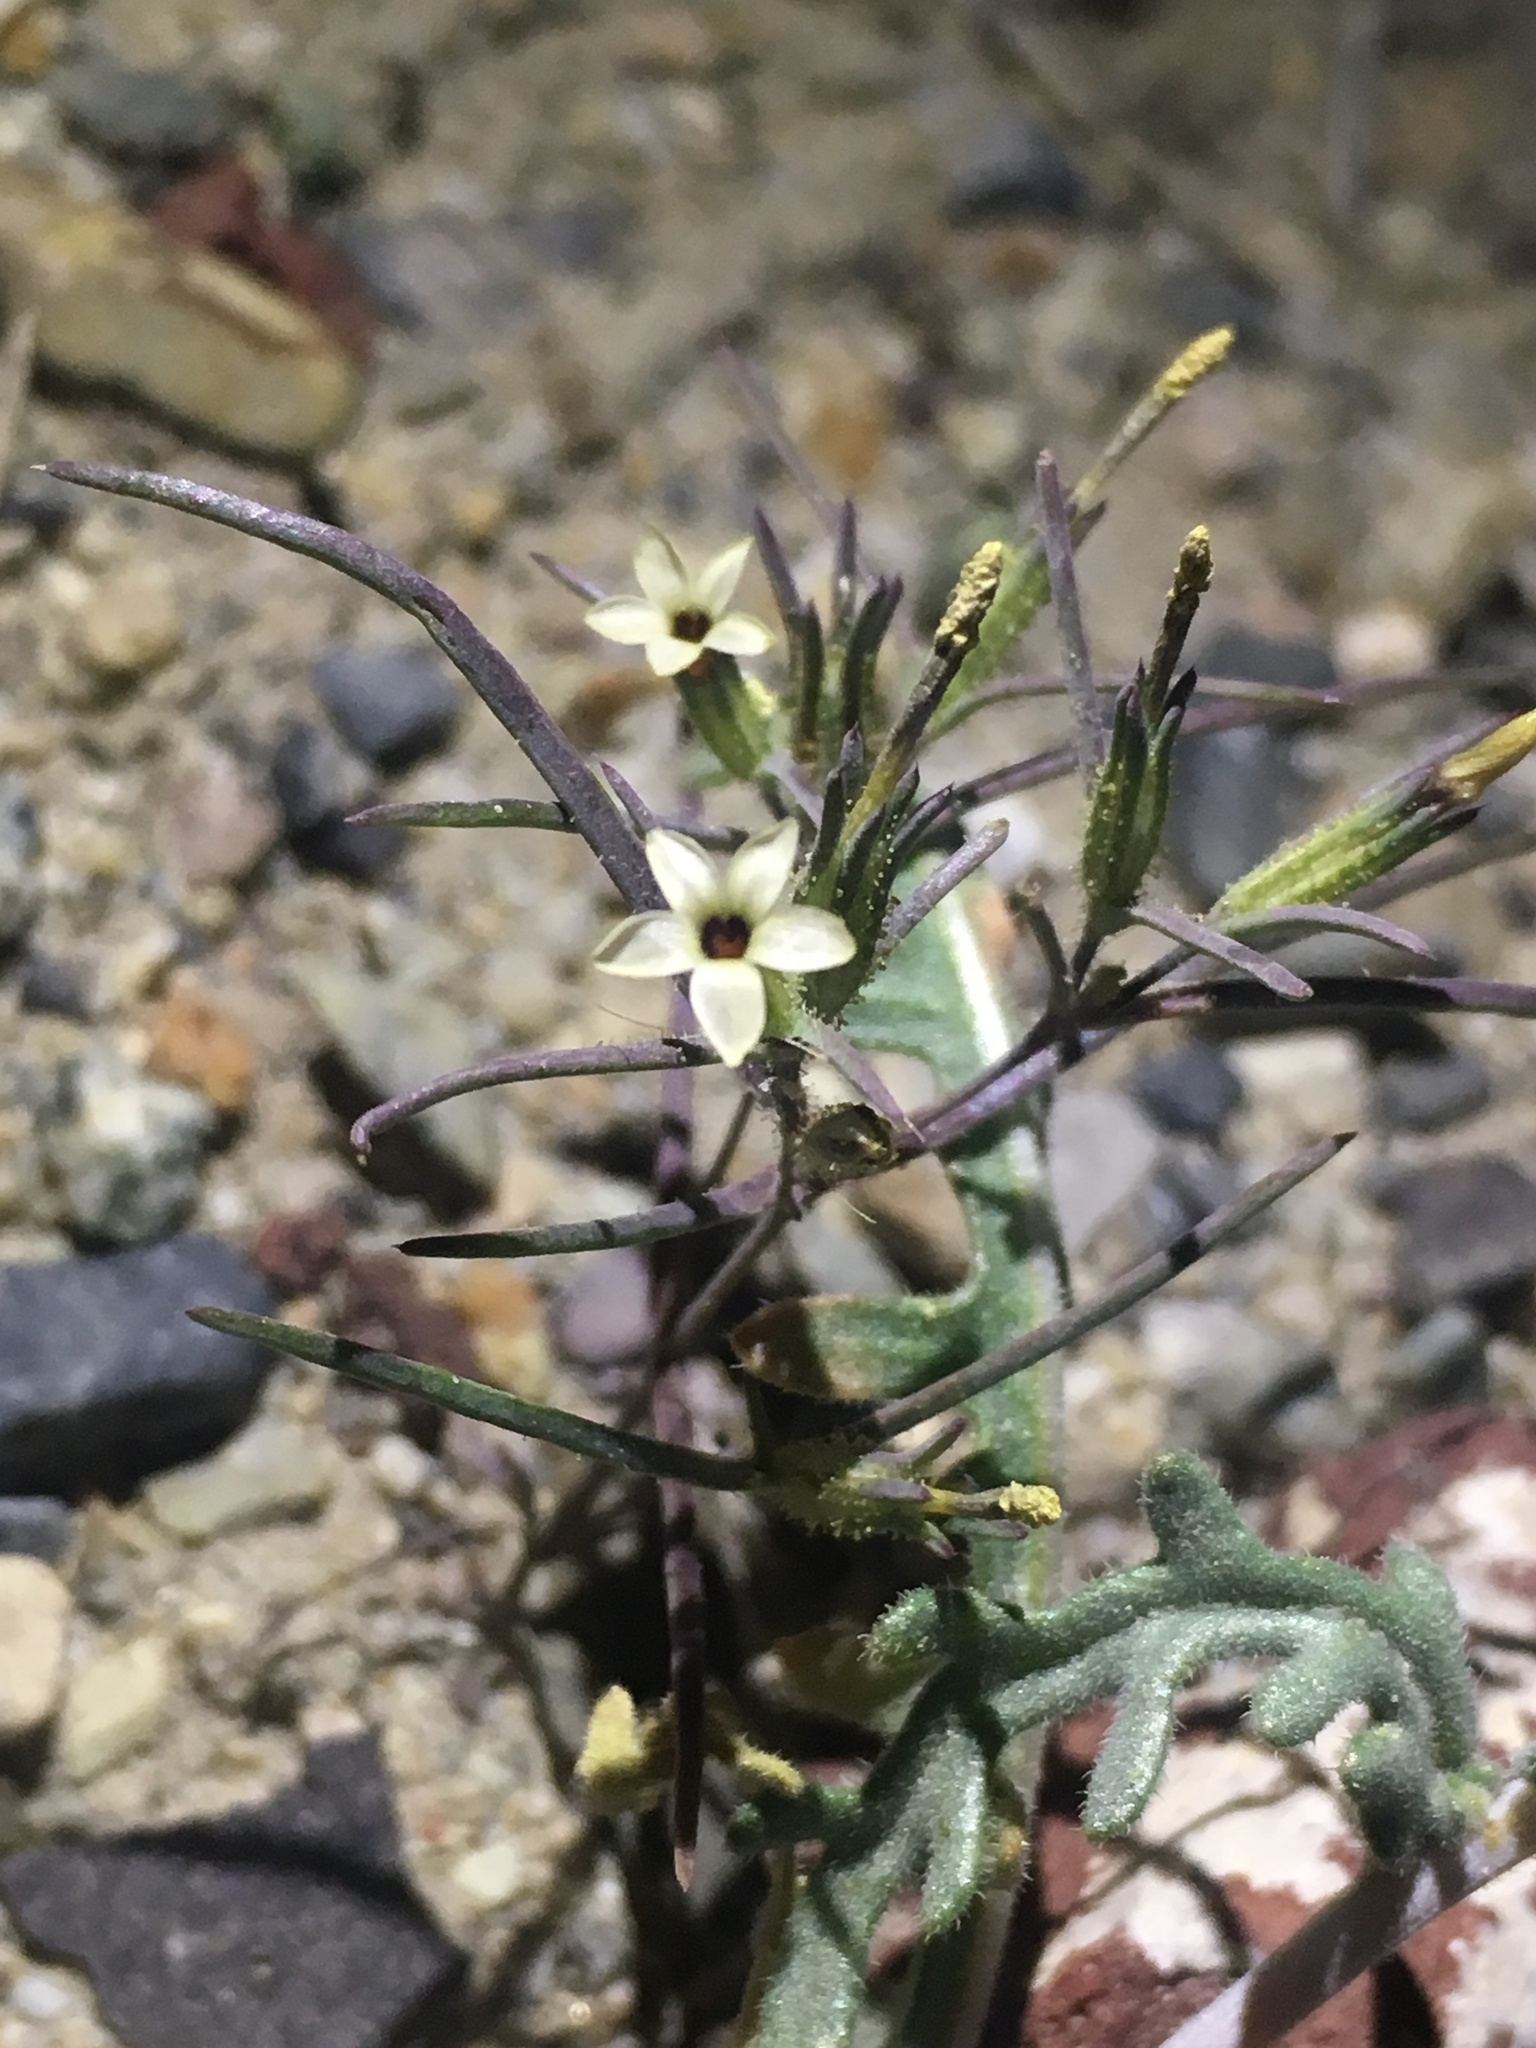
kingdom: Plantae
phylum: Tracheophyta
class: Magnoliopsida
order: Ericales
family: Polemoniaceae
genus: Linanthus
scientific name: Linanthus jonesii
